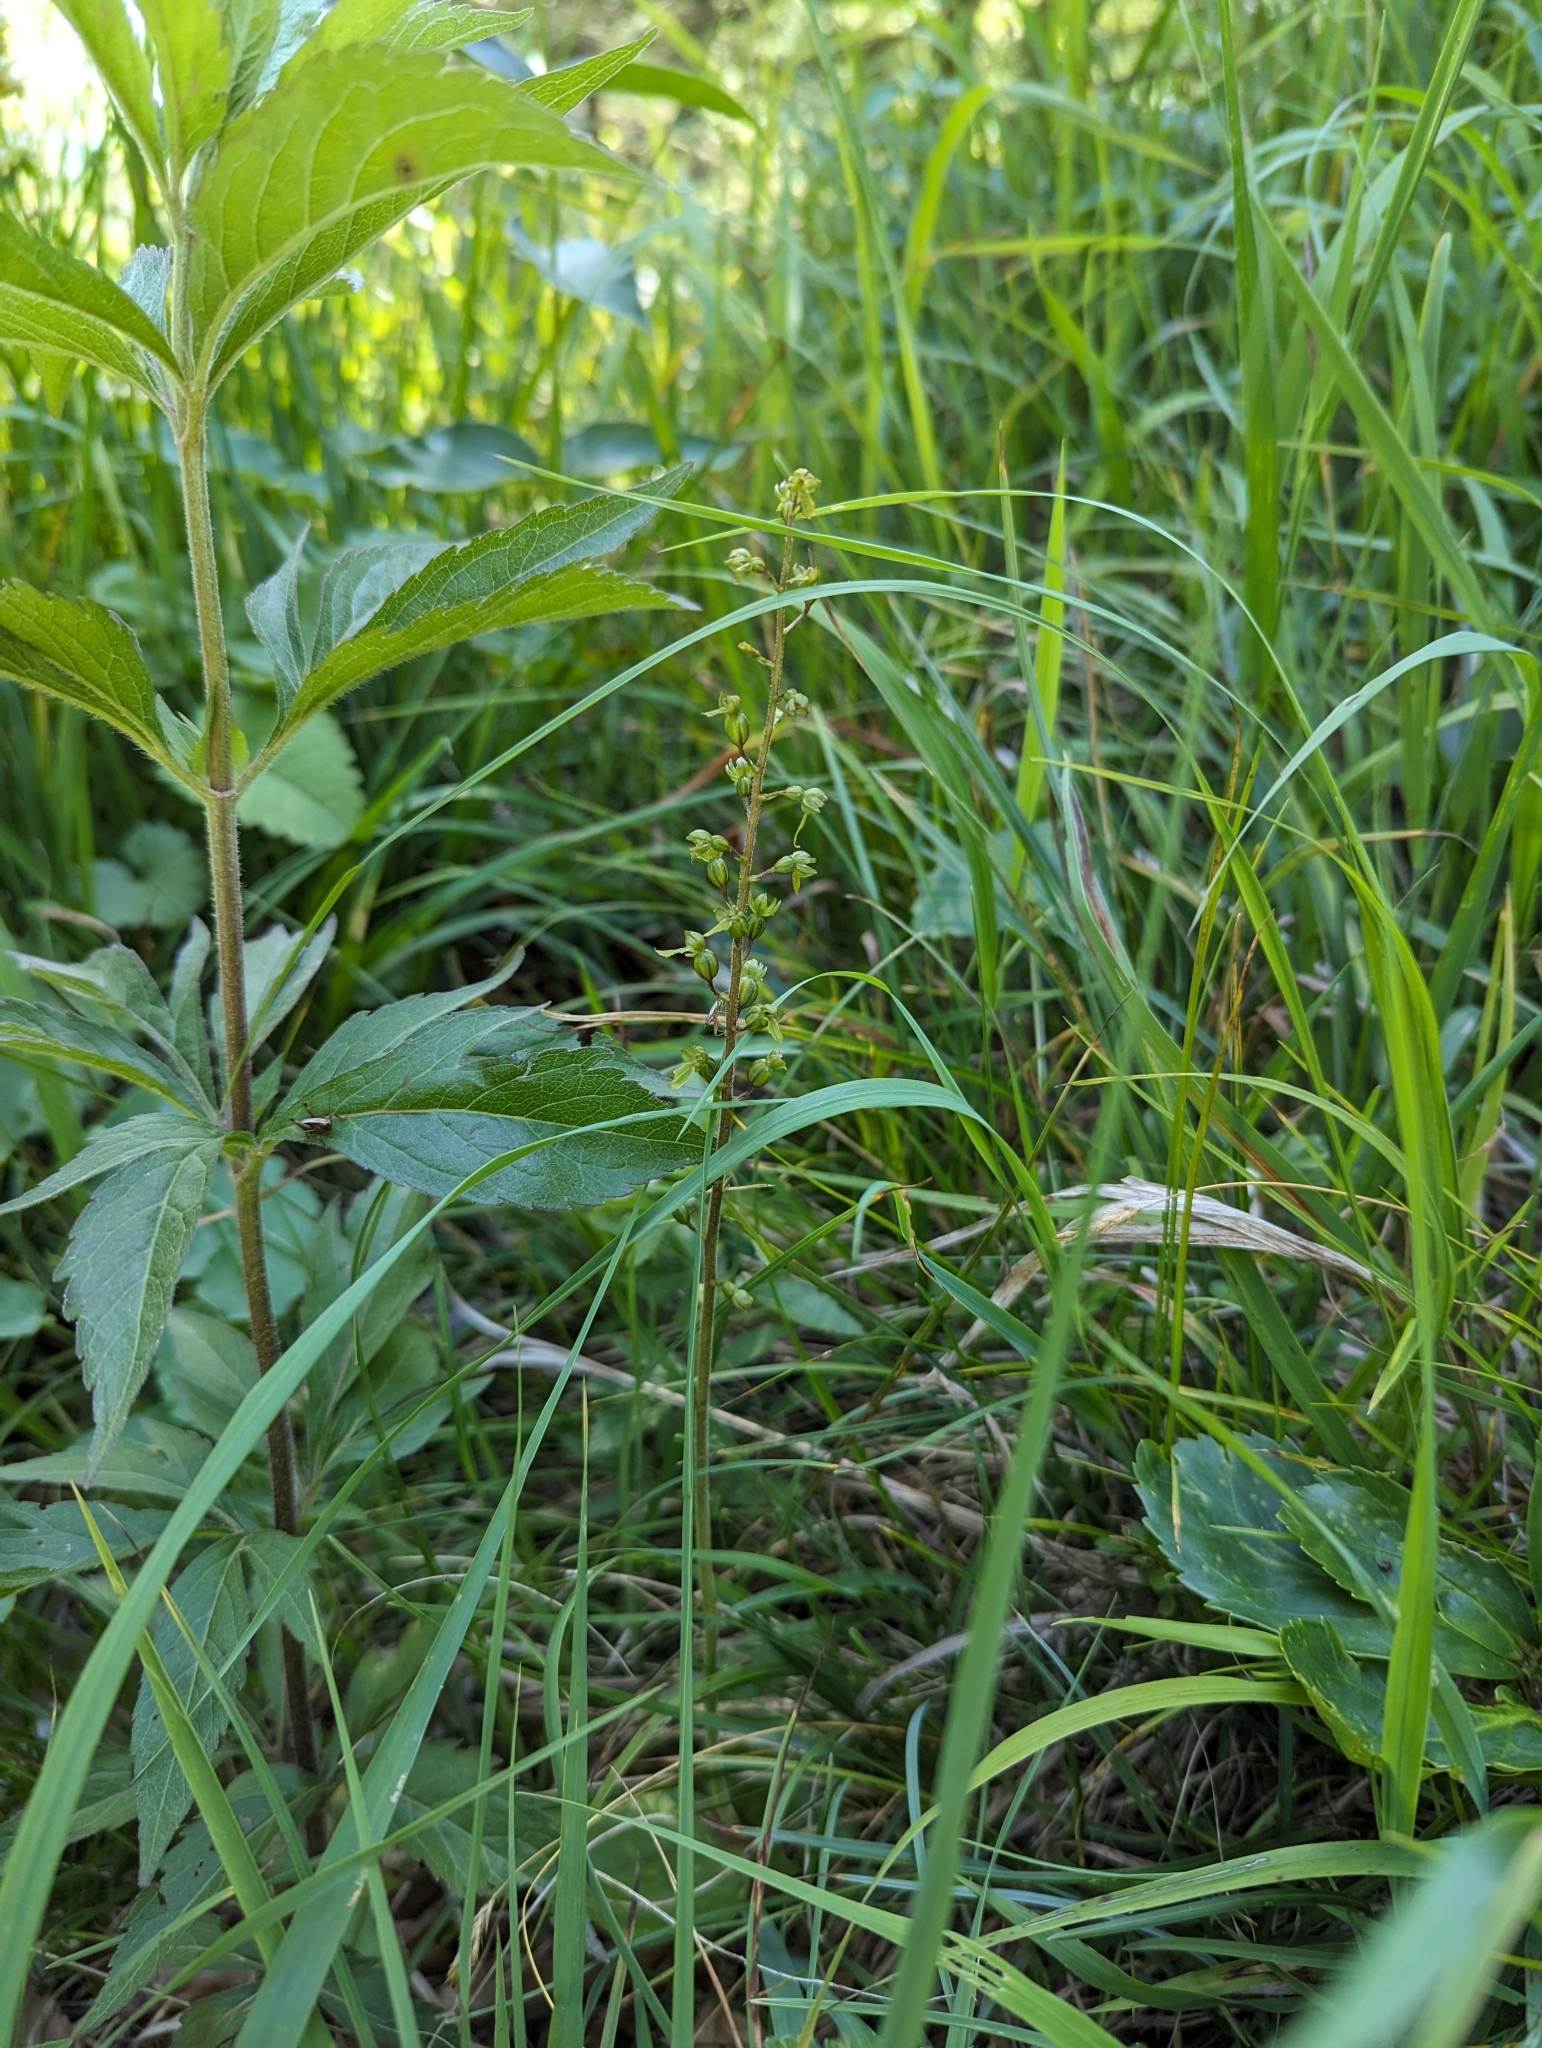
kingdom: Plantae
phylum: Tracheophyta
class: Liliopsida
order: Asparagales
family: Orchidaceae
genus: Neottia
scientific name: Neottia ovata
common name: Common twayblade
